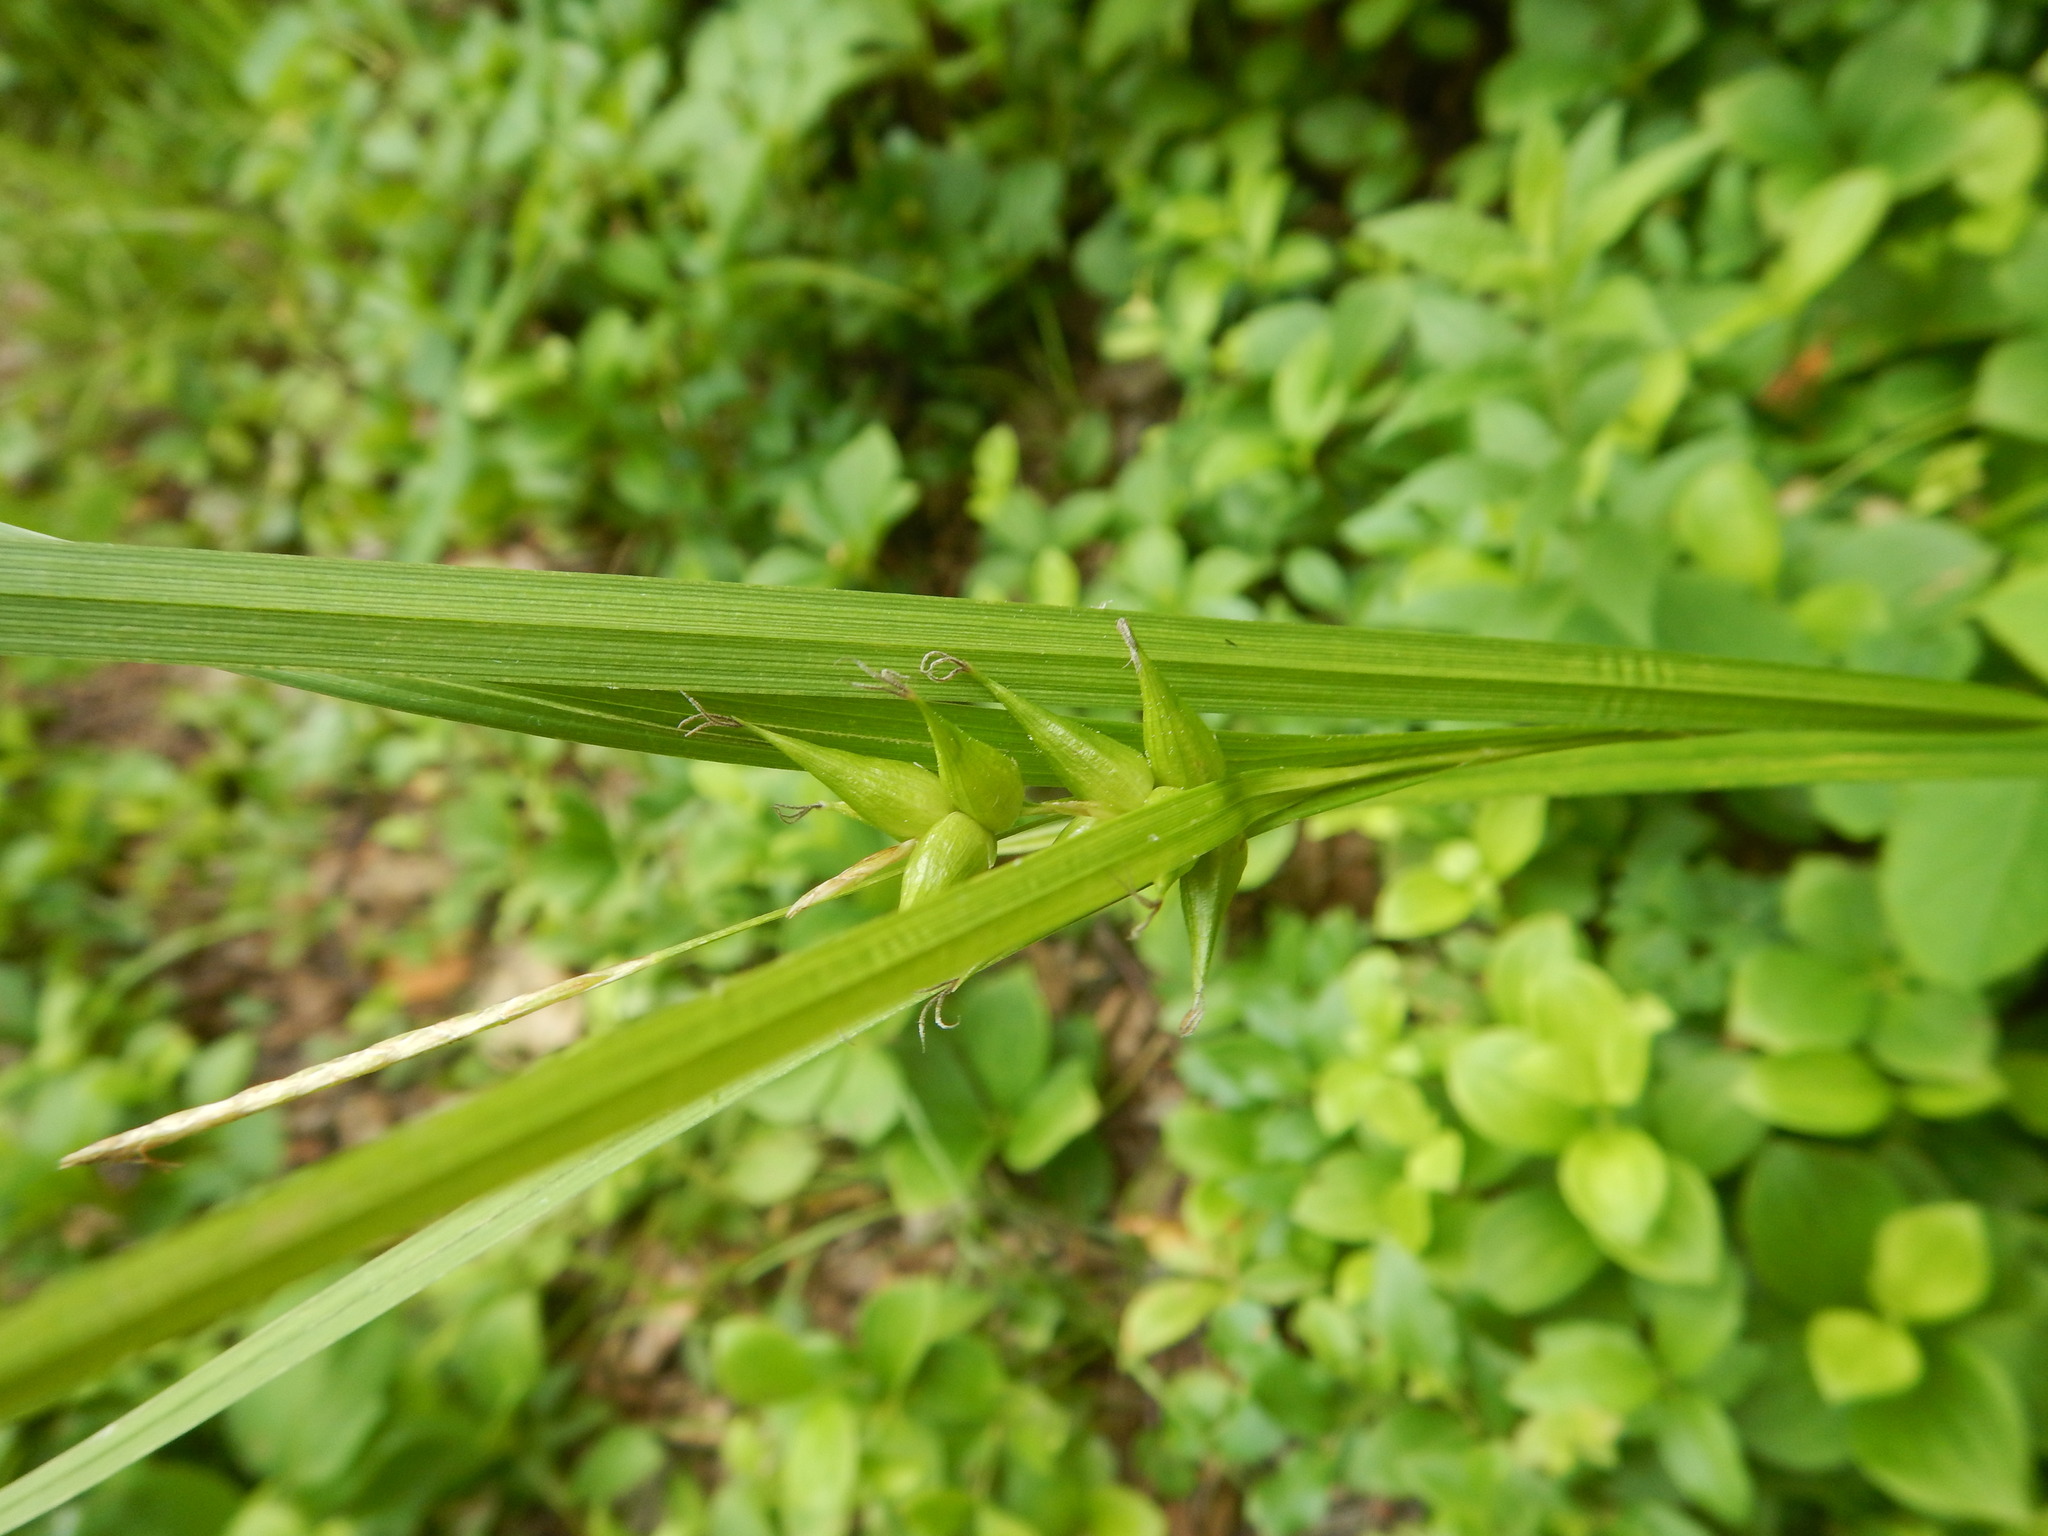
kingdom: Plantae
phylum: Tracheophyta
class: Liliopsida
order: Poales
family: Cyperaceae
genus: Carex
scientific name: Carex intumescens
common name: Greater bladder sedge
